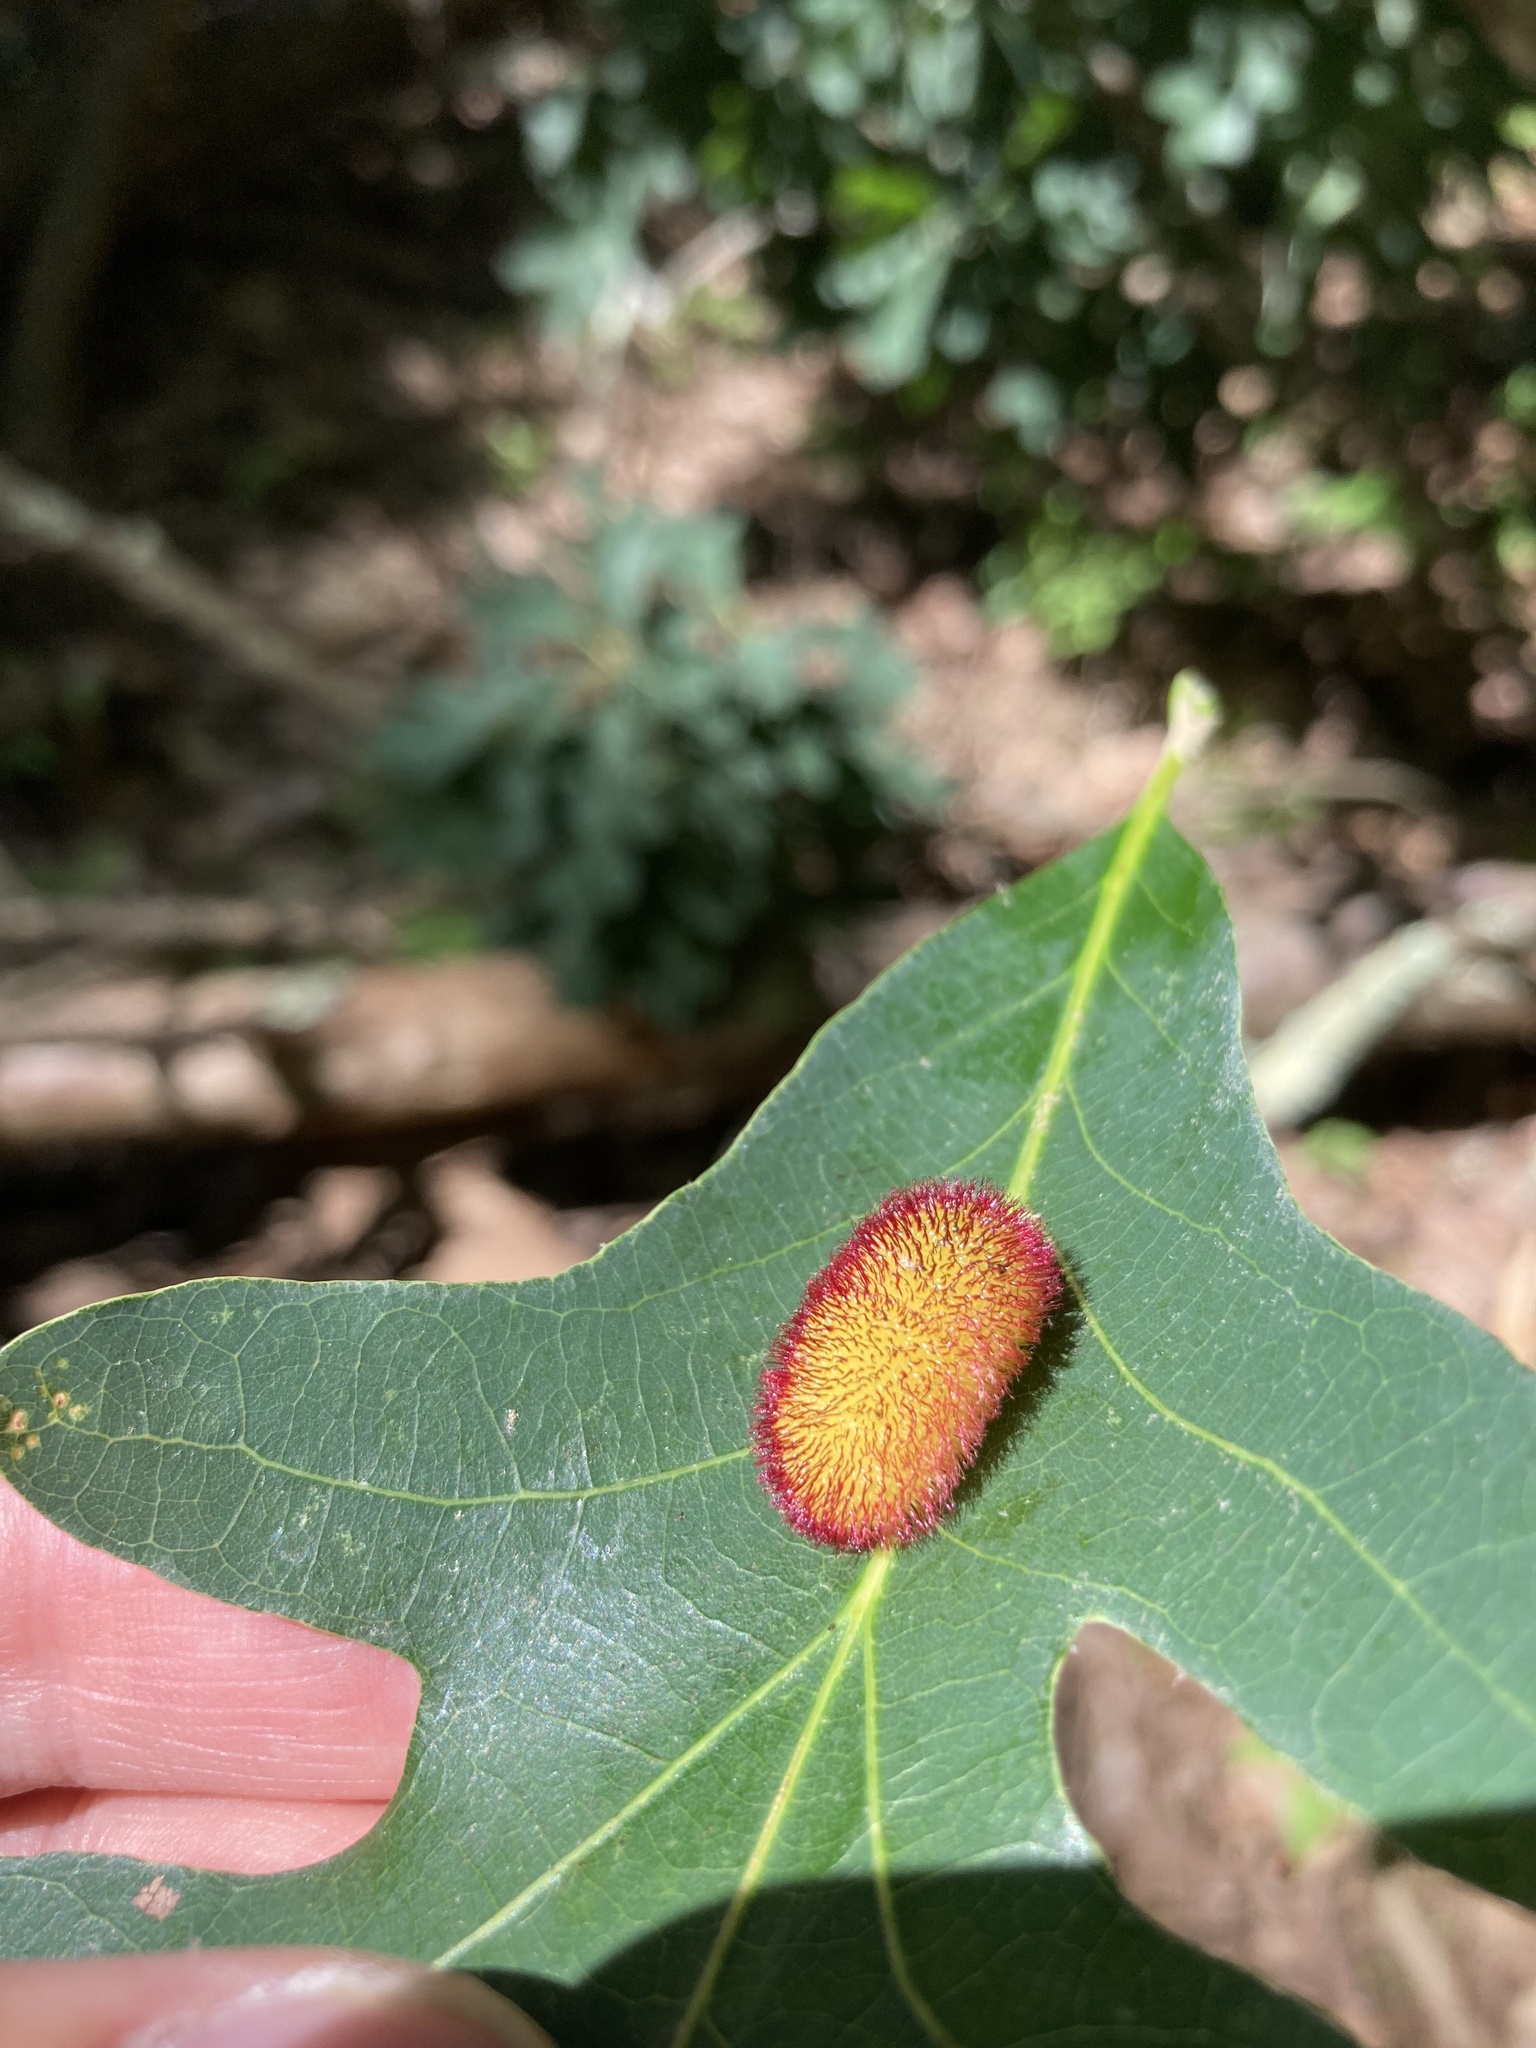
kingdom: Animalia
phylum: Arthropoda
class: Insecta
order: Hymenoptera
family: Cynipidae
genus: Acraspis
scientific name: Acraspis erinacei
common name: Hedgehog gall wasp
